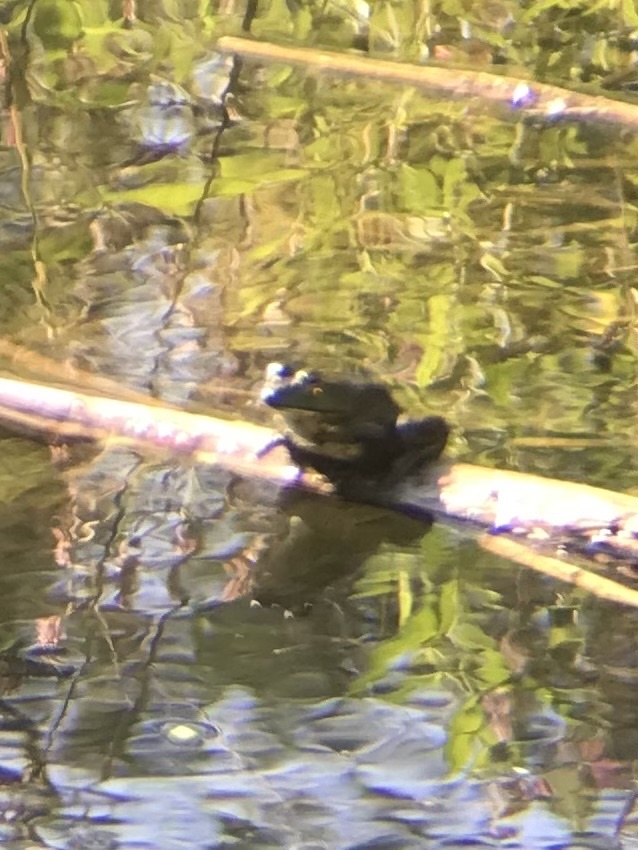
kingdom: Animalia
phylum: Chordata
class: Amphibia
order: Anura
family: Ranidae
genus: Lithobates
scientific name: Lithobates catesbeianus
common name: American bullfrog
